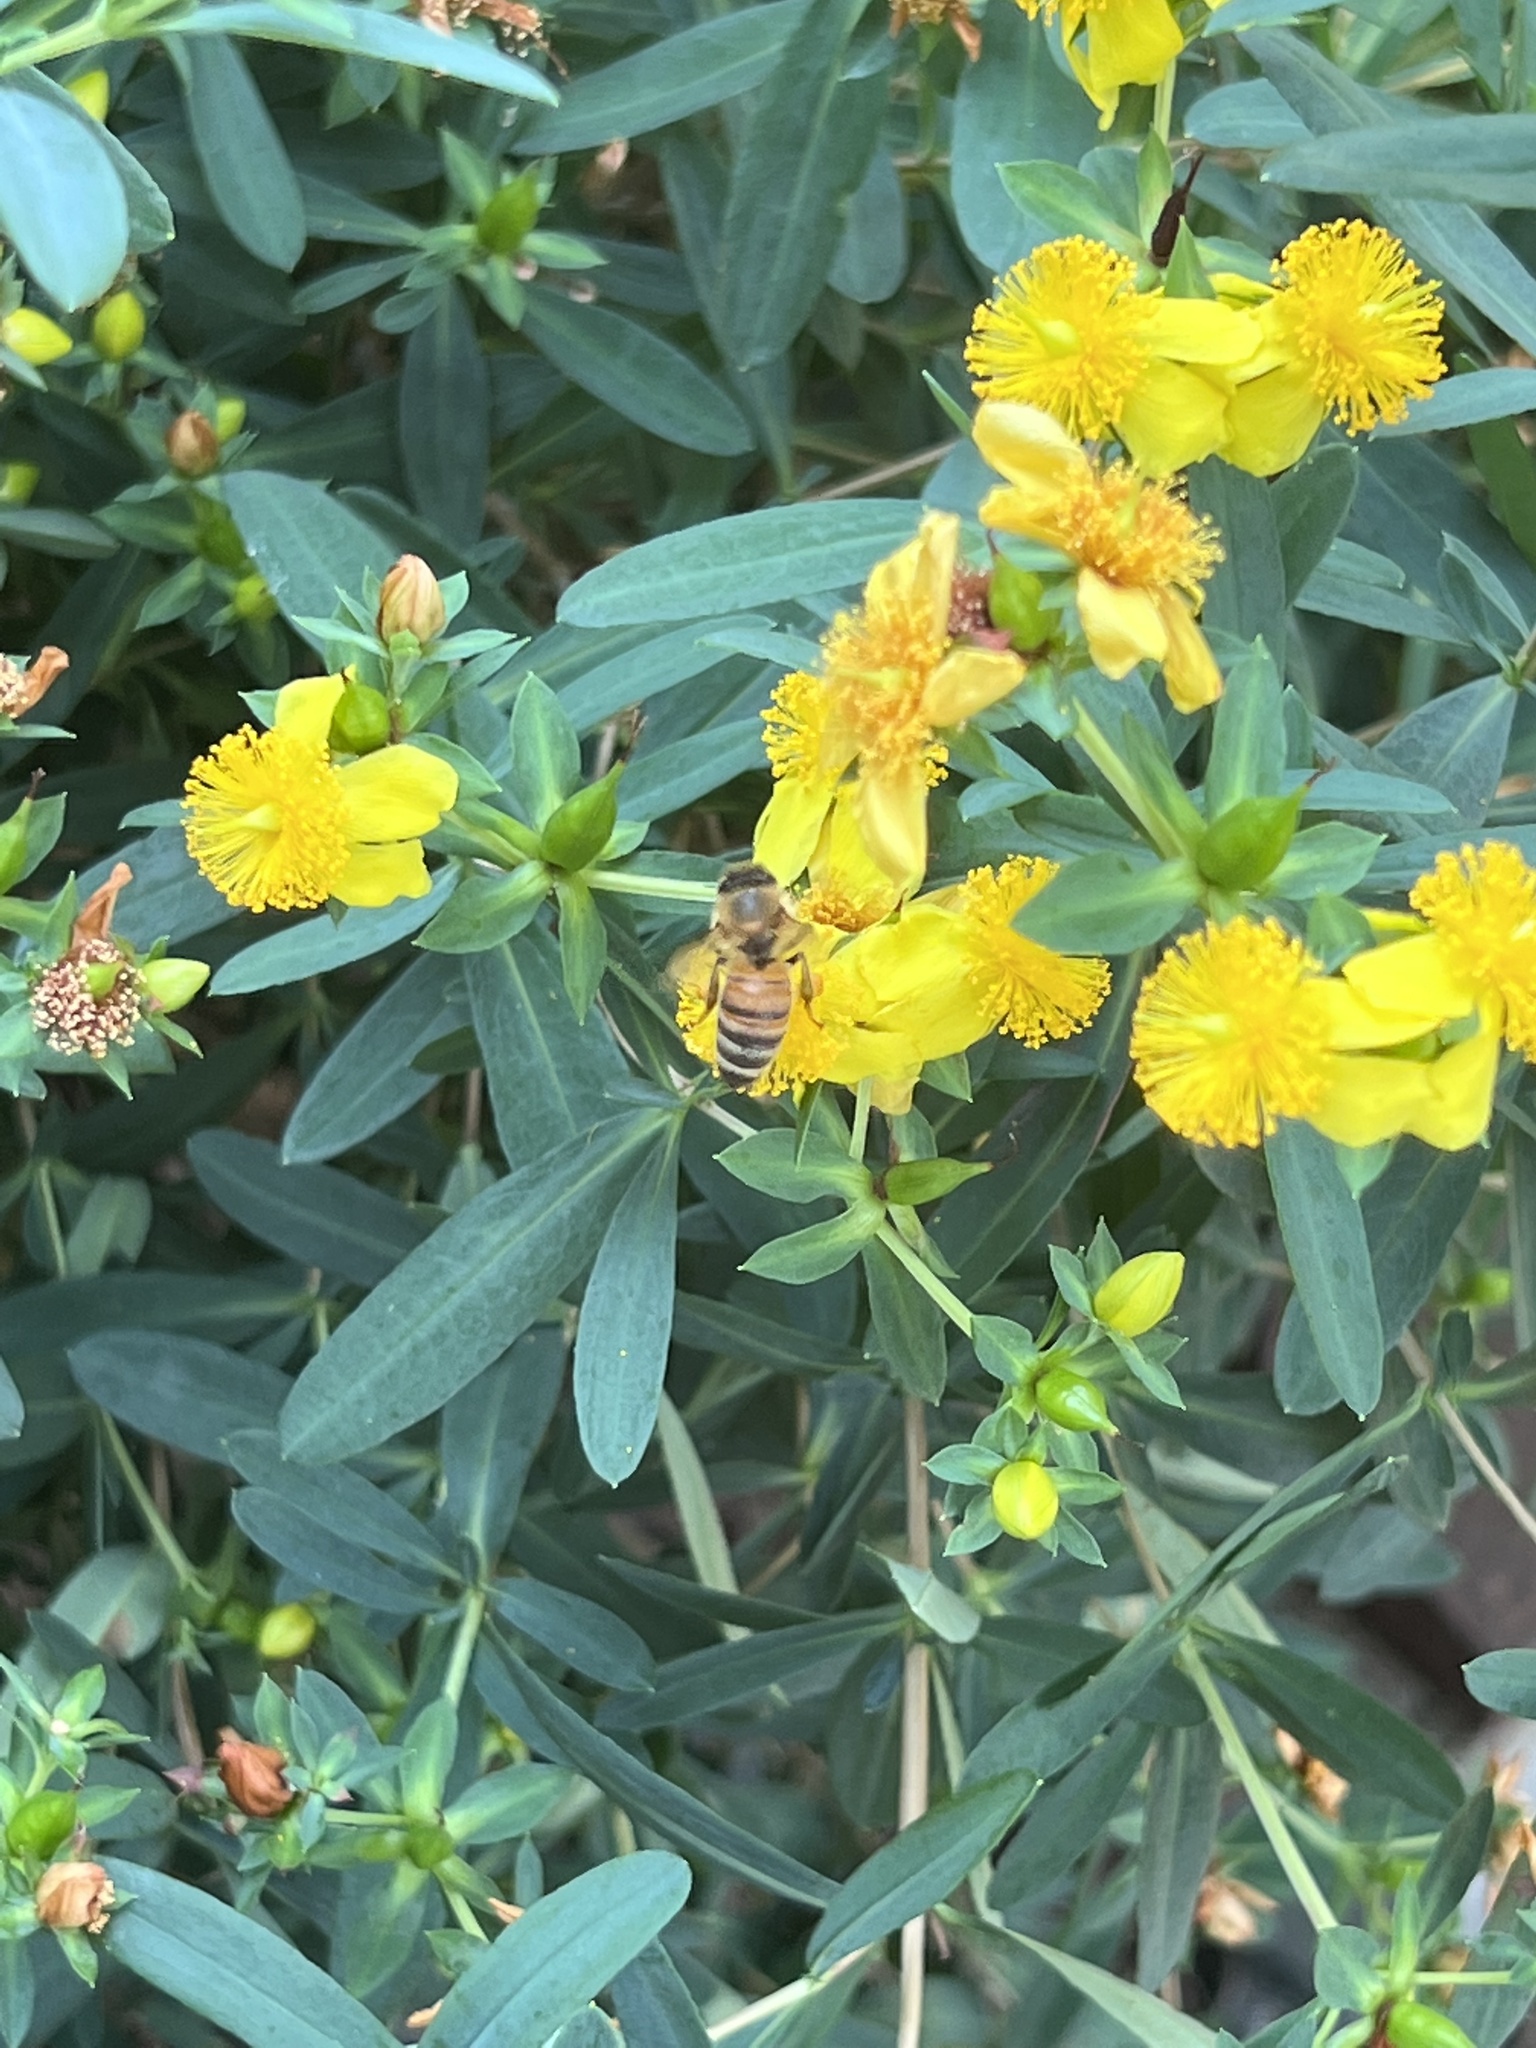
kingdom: Animalia
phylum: Arthropoda
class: Insecta
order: Hymenoptera
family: Apidae
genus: Apis
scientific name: Apis mellifera
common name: Honey bee
